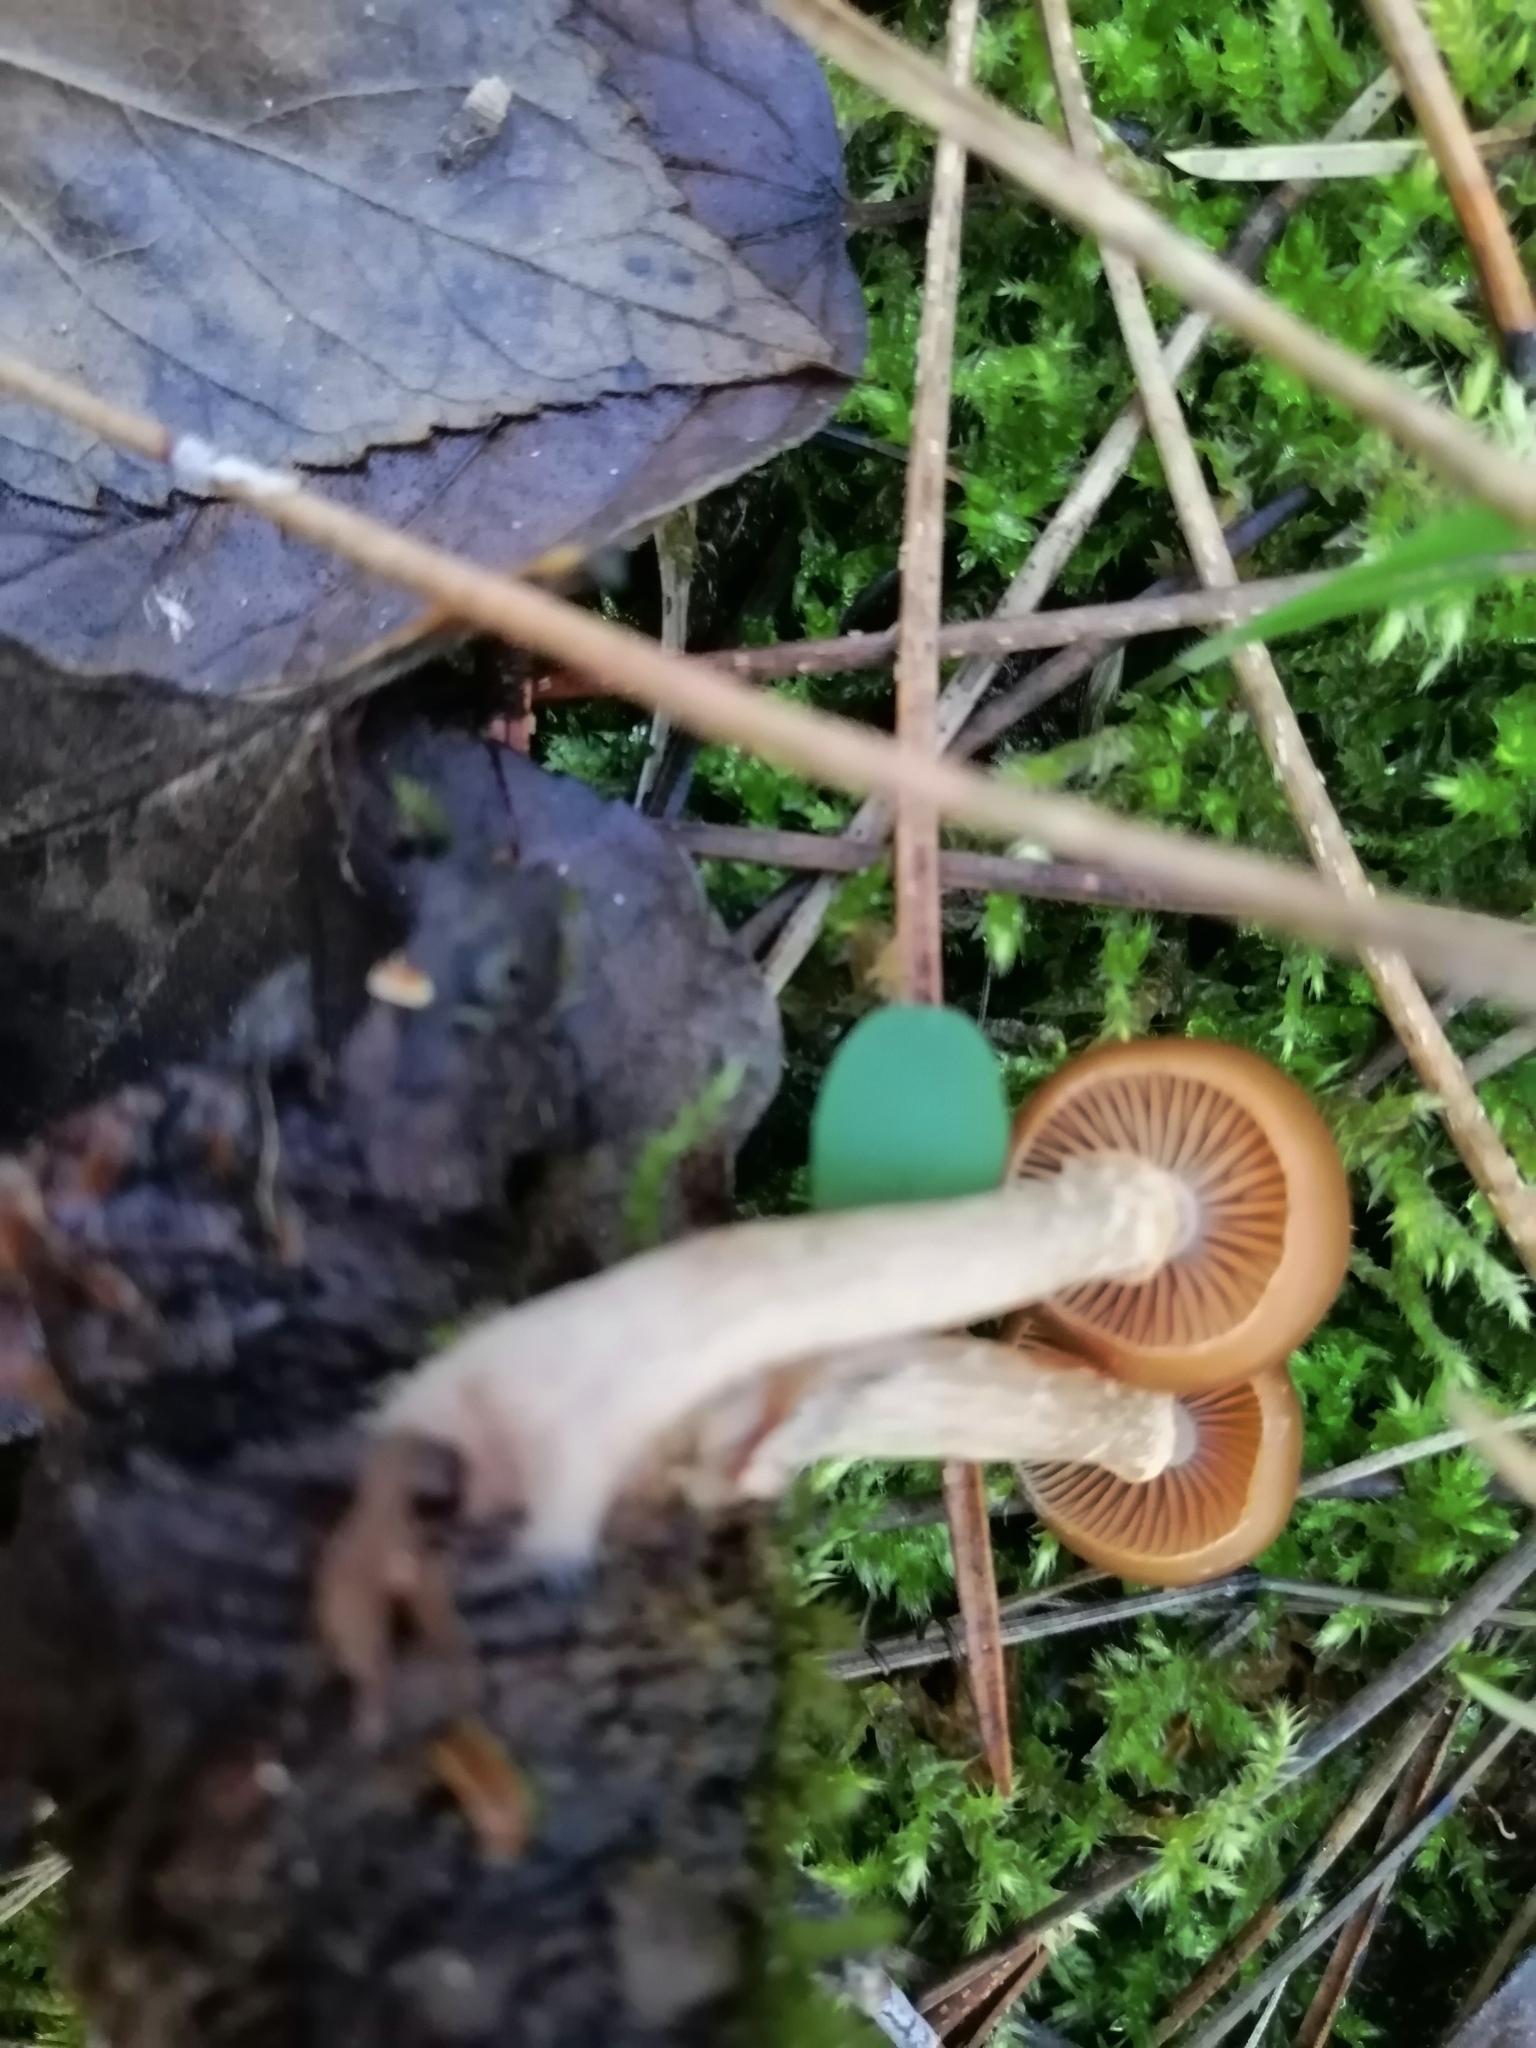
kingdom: Fungi
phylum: Basidiomycota
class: Agaricomycetes
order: Agaricales
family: Hymenogastraceae
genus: Galerina
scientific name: Galerina marginata
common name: Funeral bell
